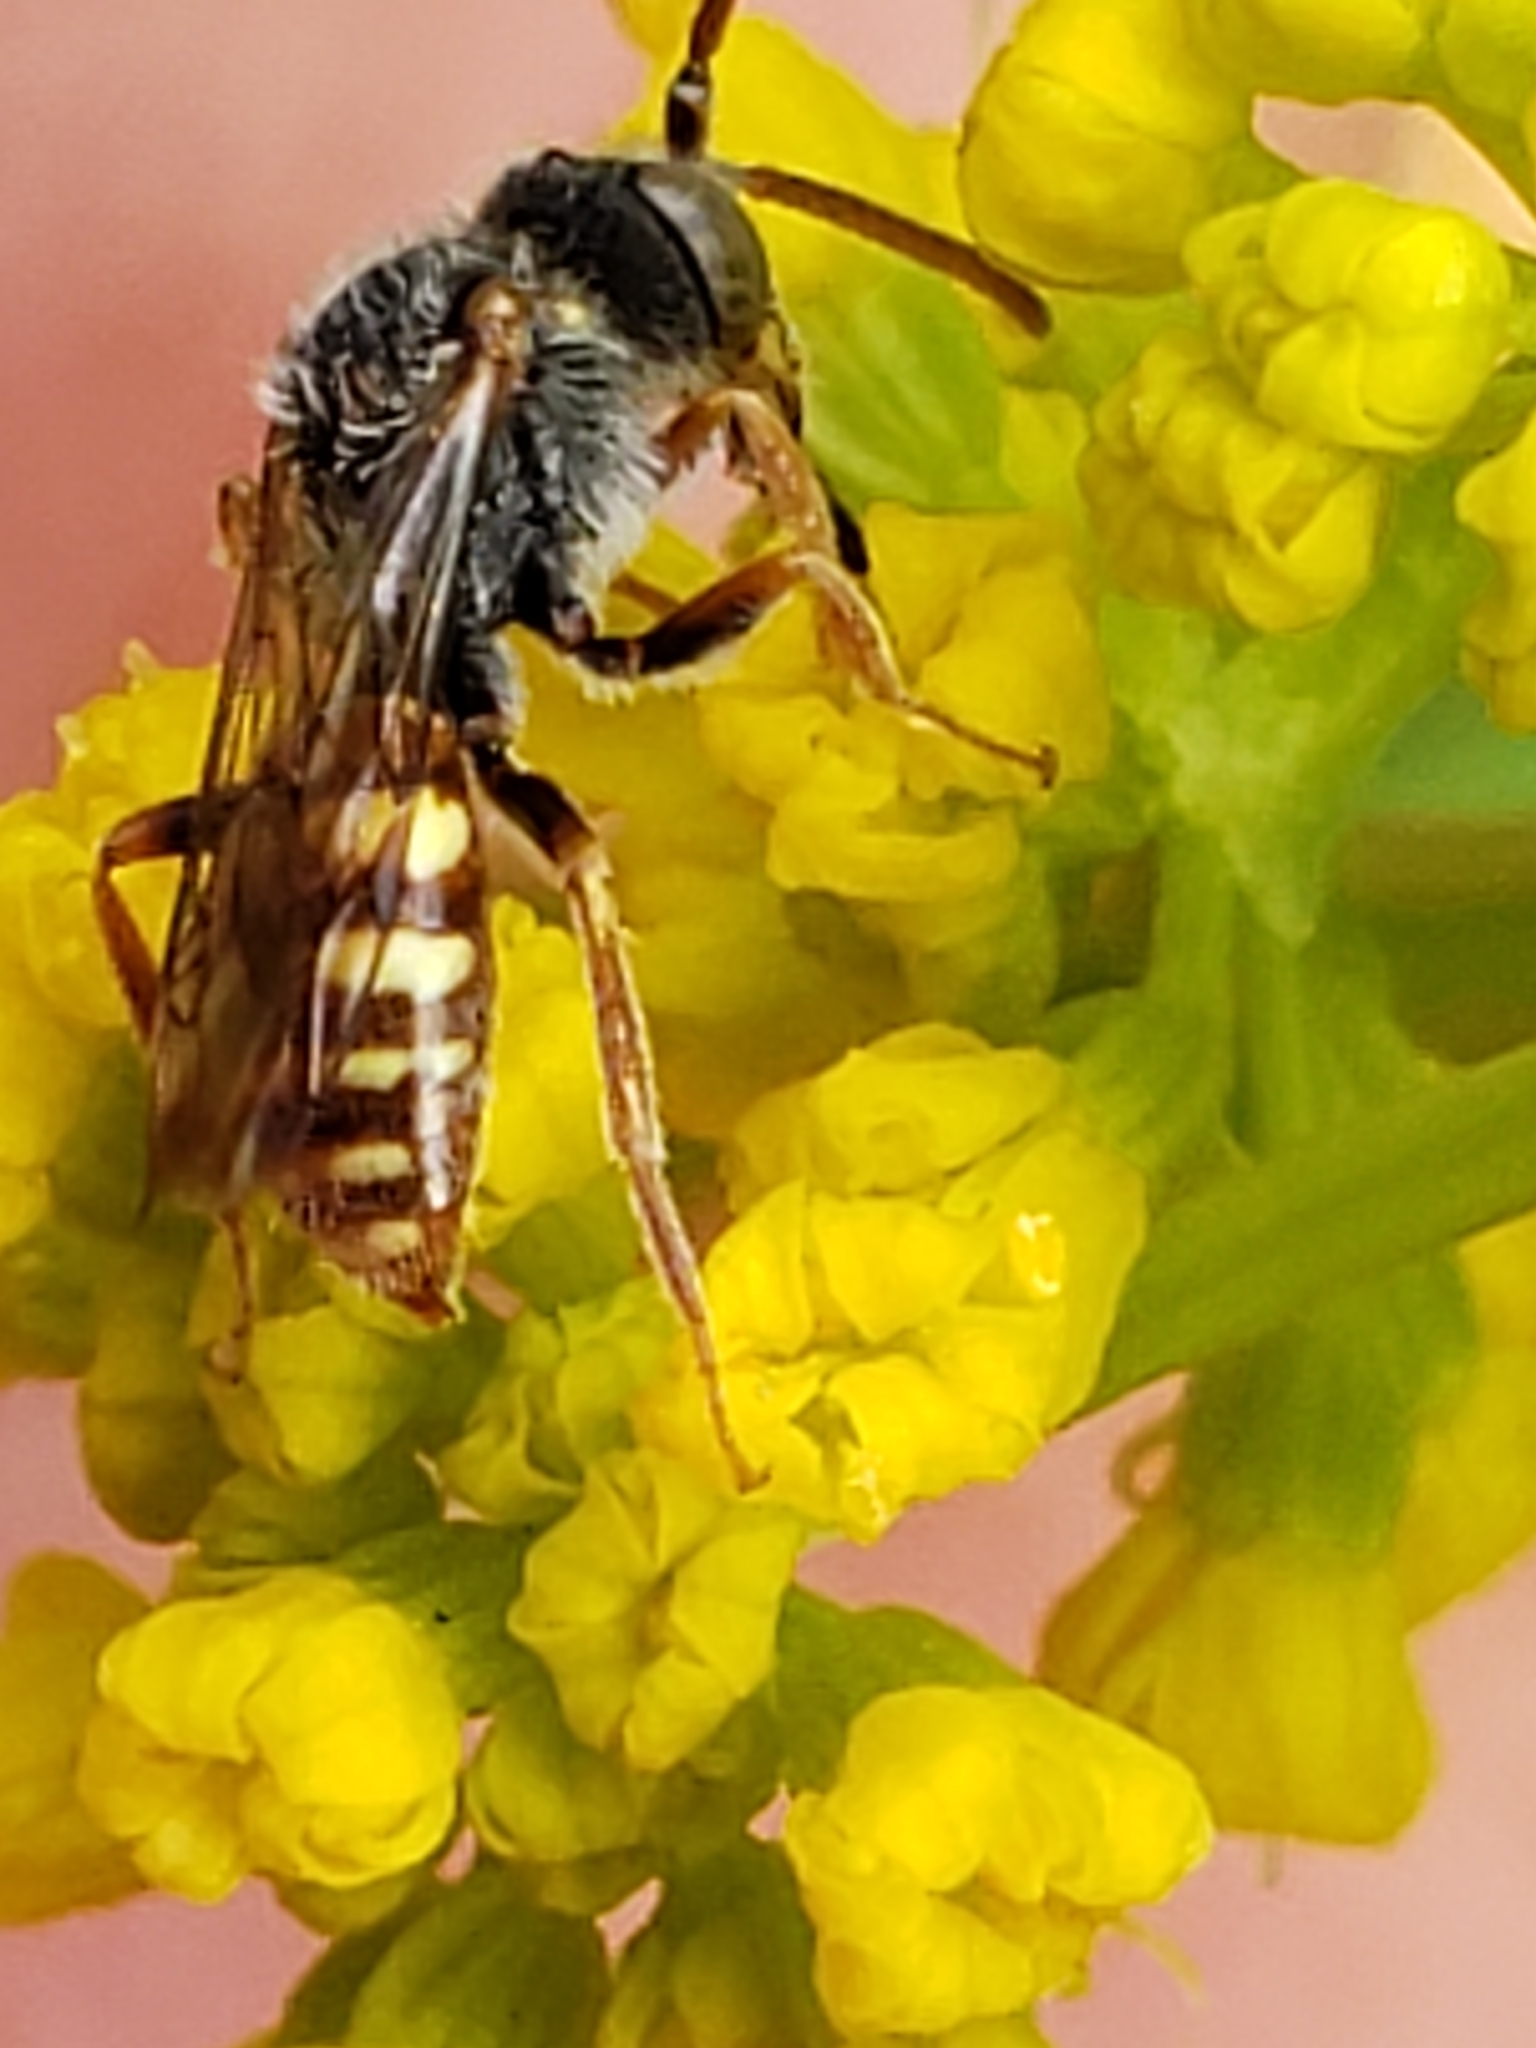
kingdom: Animalia
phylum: Arthropoda
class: Insecta
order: Hymenoptera
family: Apidae
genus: Nomada
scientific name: Nomada
